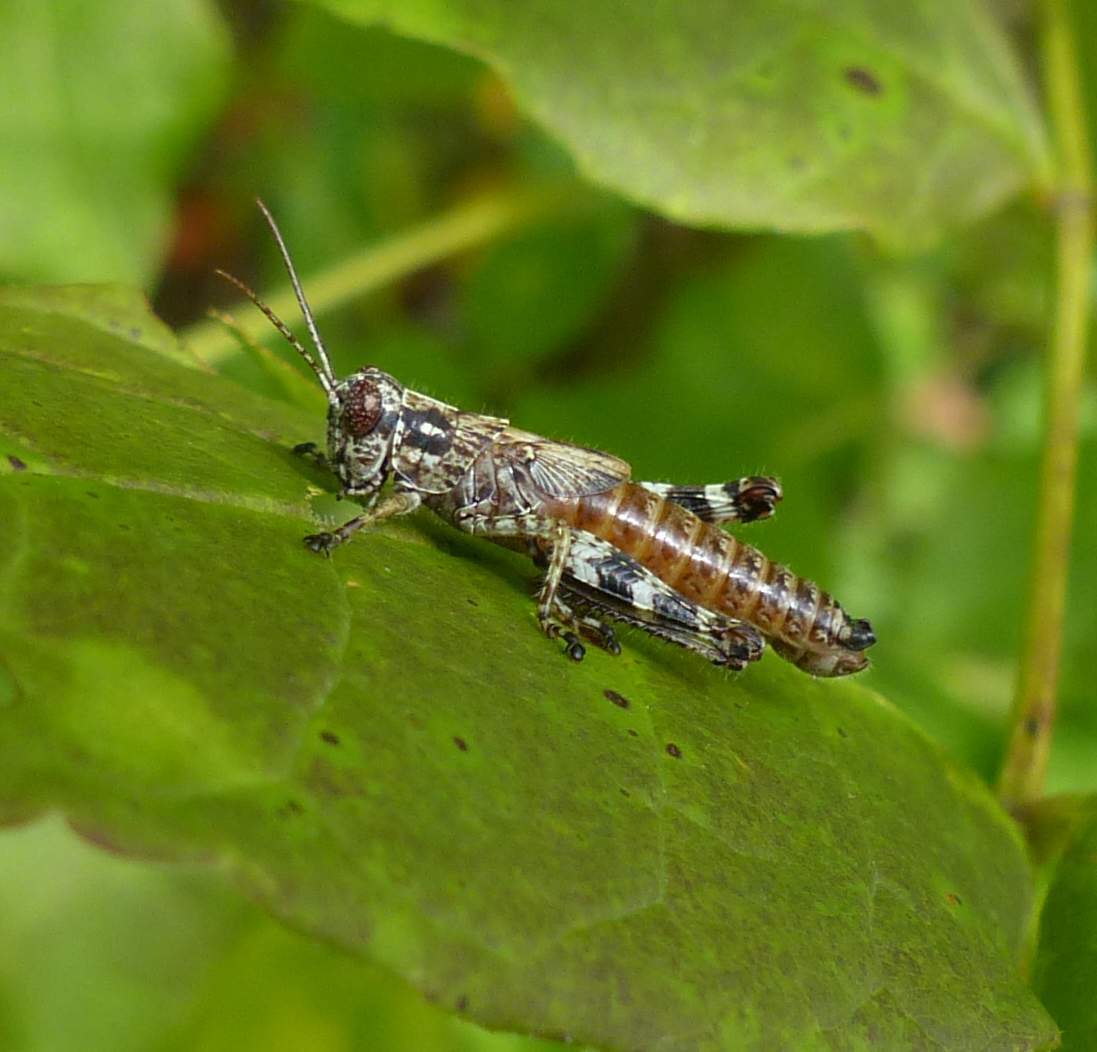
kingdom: Animalia
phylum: Arthropoda
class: Insecta
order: Orthoptera
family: Acrididae
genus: Melanoplus
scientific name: Melanoplus punctulatus
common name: Pine-tree spur-throat grasshopper
